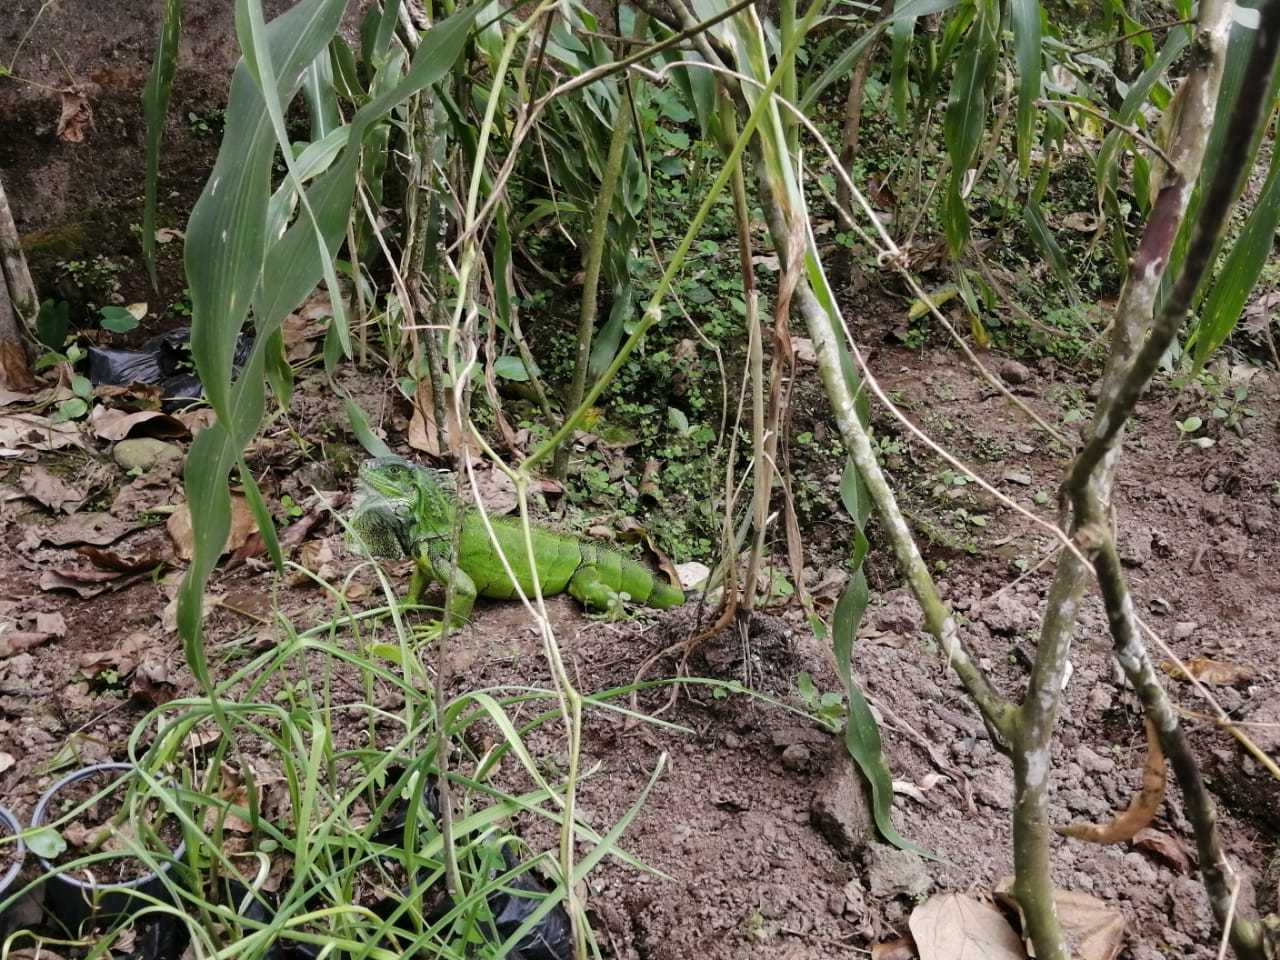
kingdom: Animalia
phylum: Chordata
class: Squamata
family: Iguanidae
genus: Iguana
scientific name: Iguana iguana
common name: Green iguana
